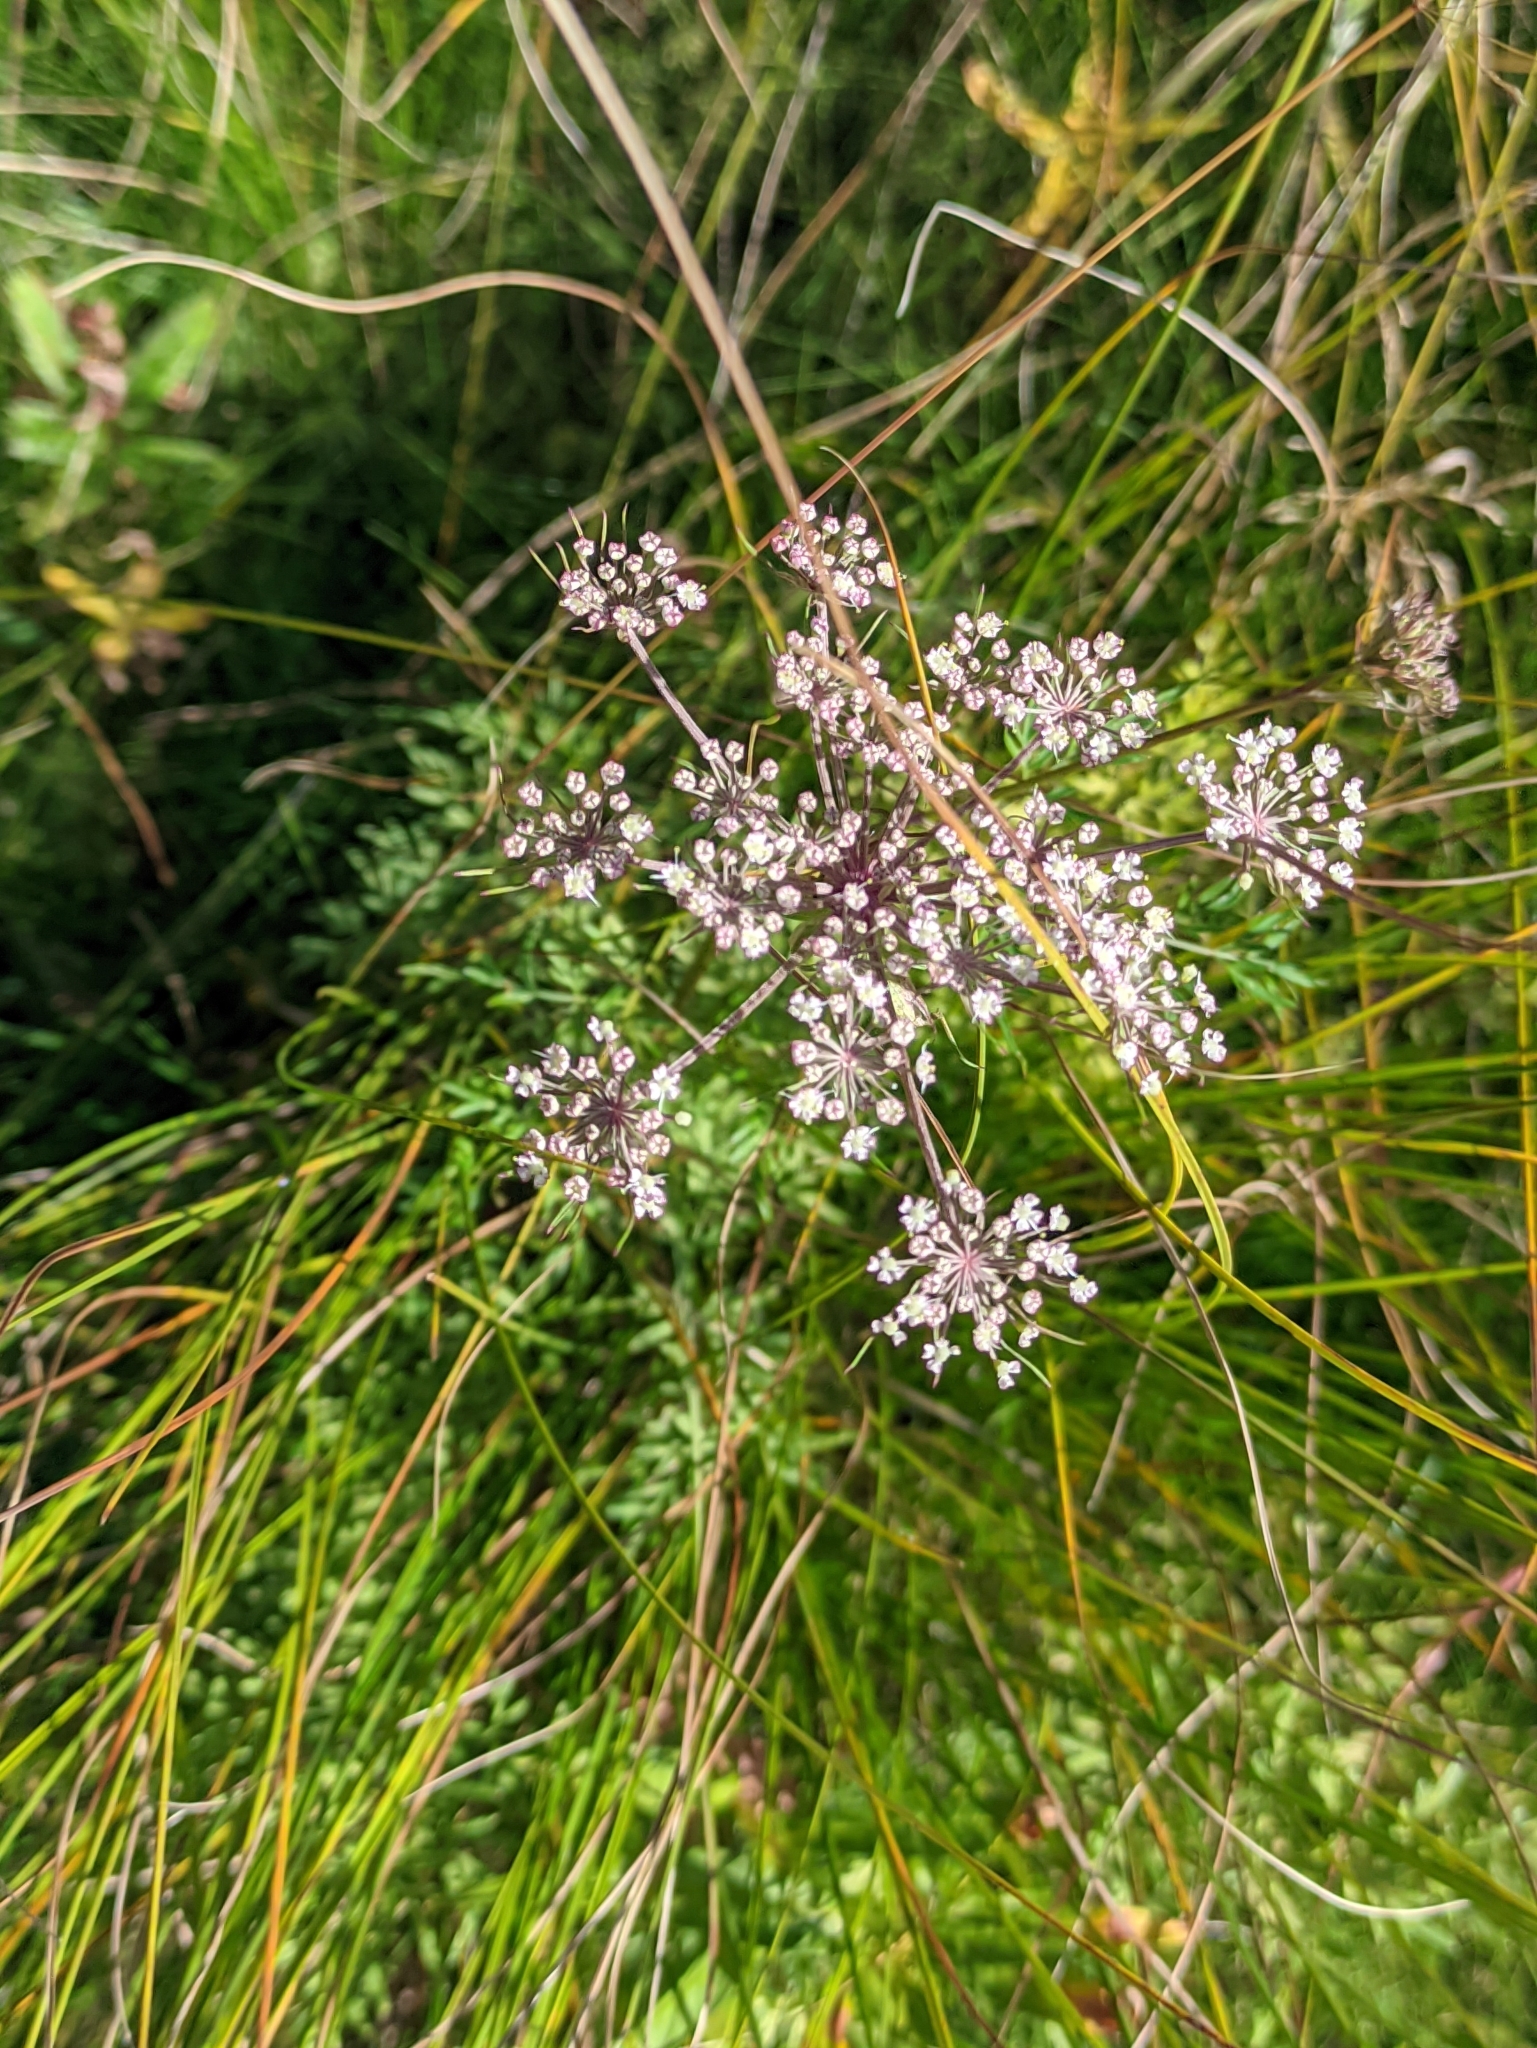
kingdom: Plantae
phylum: Tracheophyta
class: Magnoliopsida
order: Apiales
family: Apiaceae
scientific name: Apiaceae
